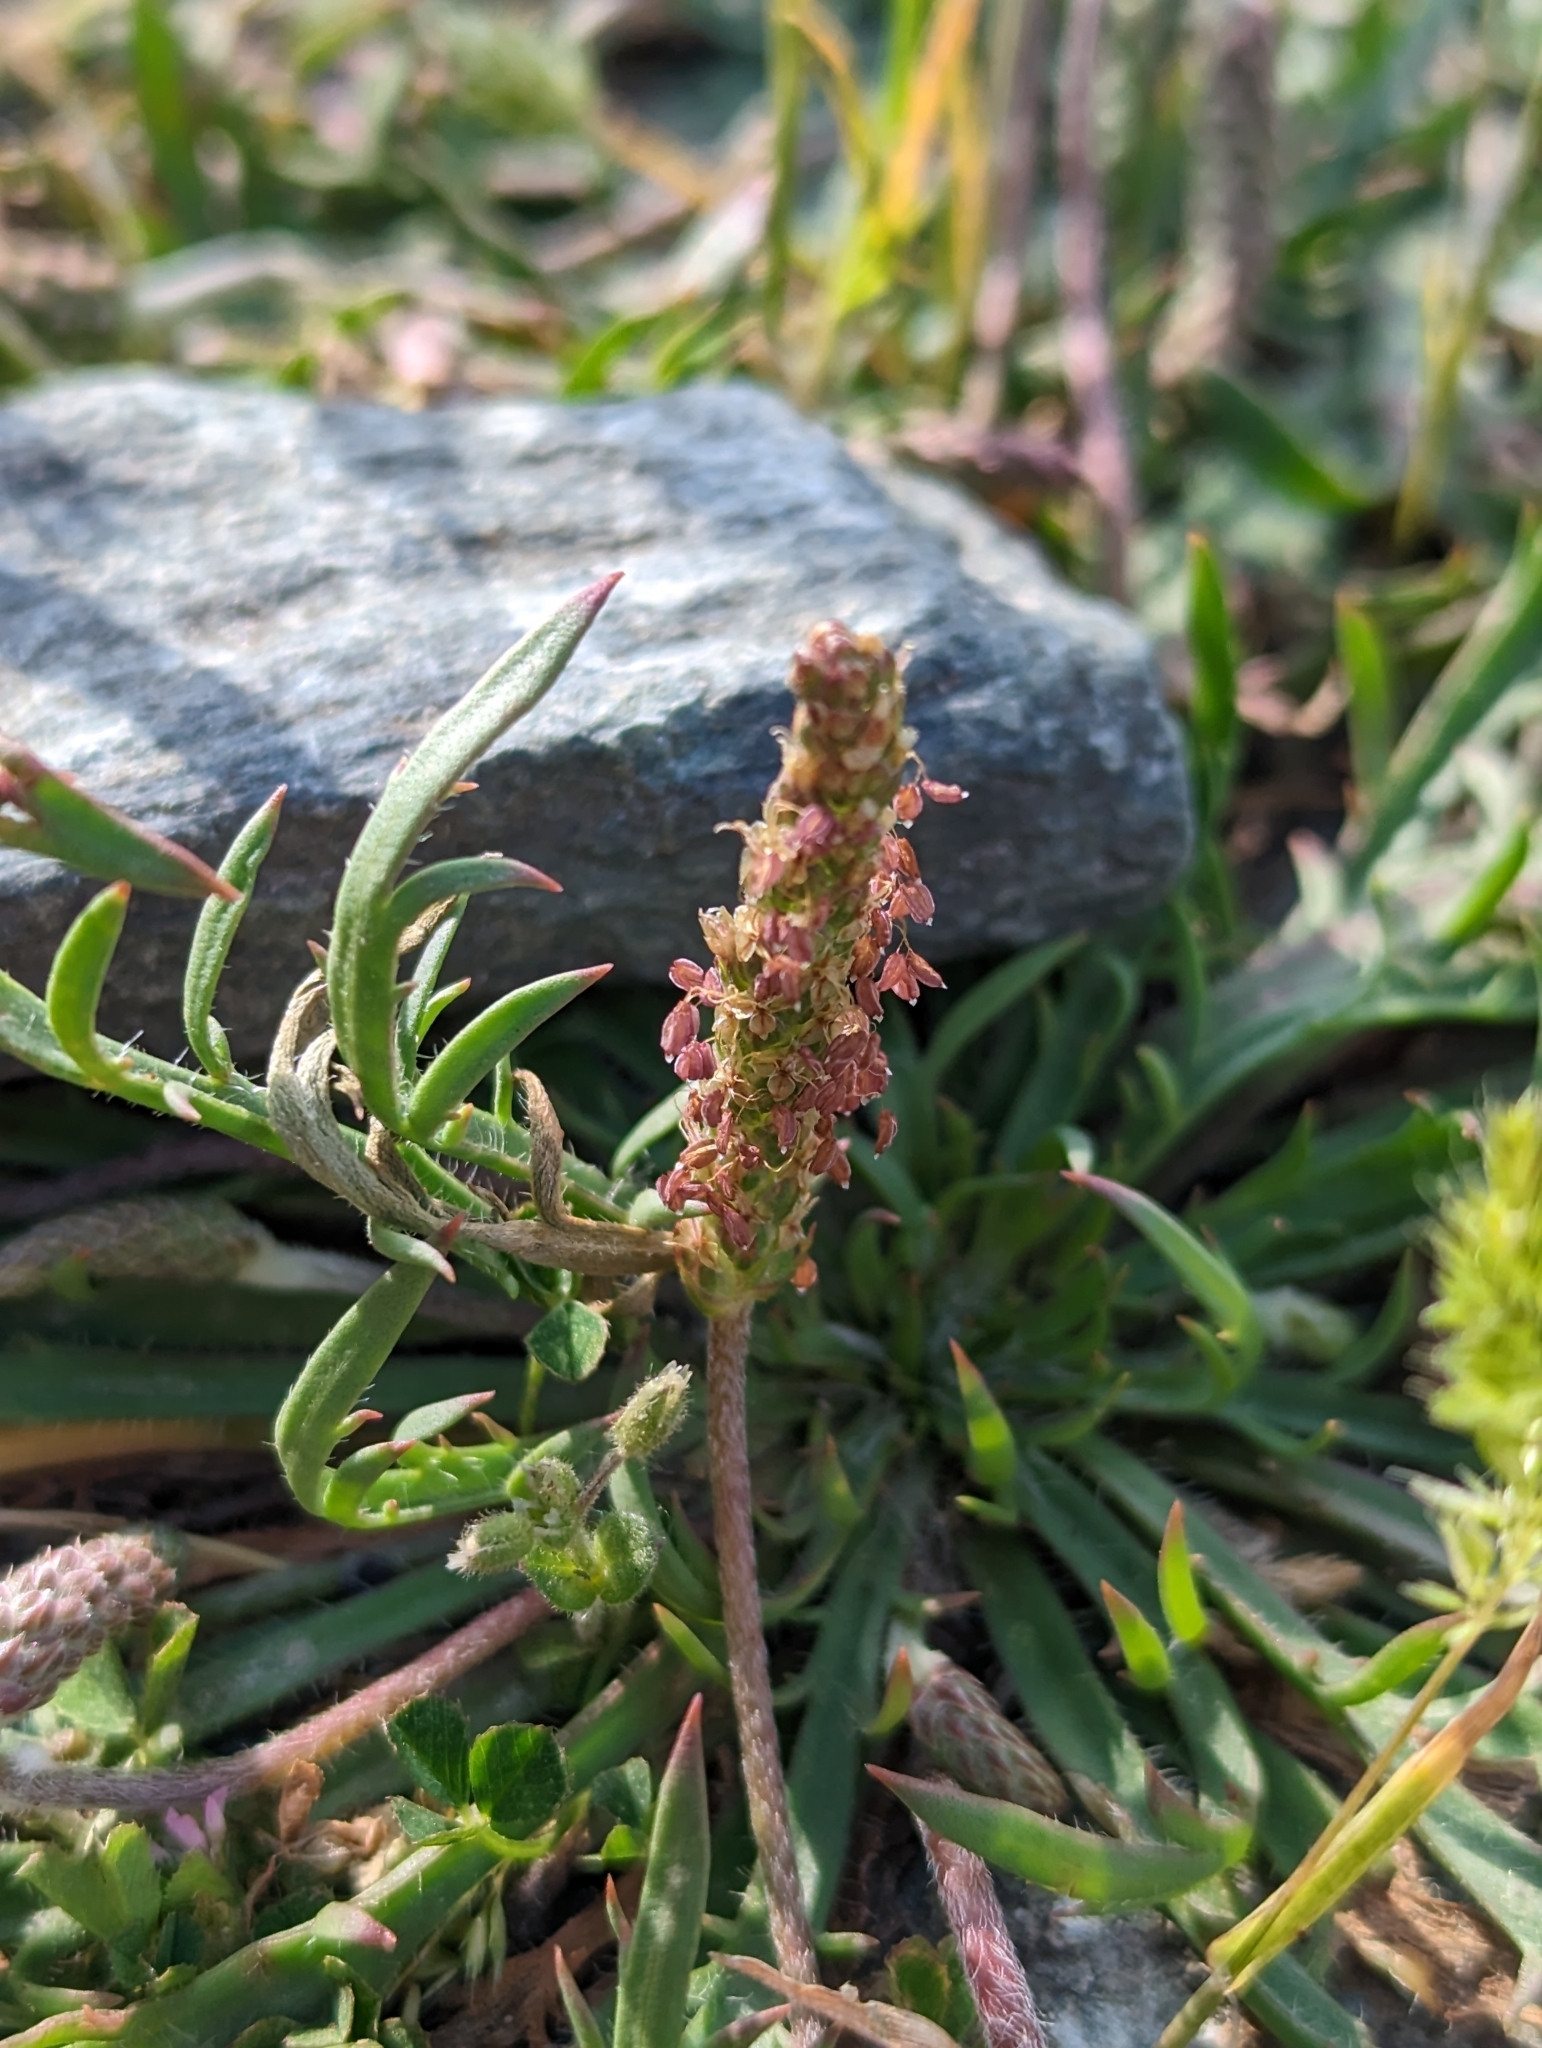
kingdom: Plantae
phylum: Tracheophyta
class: Magnoliopsida
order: Lamiales
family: Plantaginaceae
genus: Plantago
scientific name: Plantago coronopus
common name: Buck's-horn plantain
